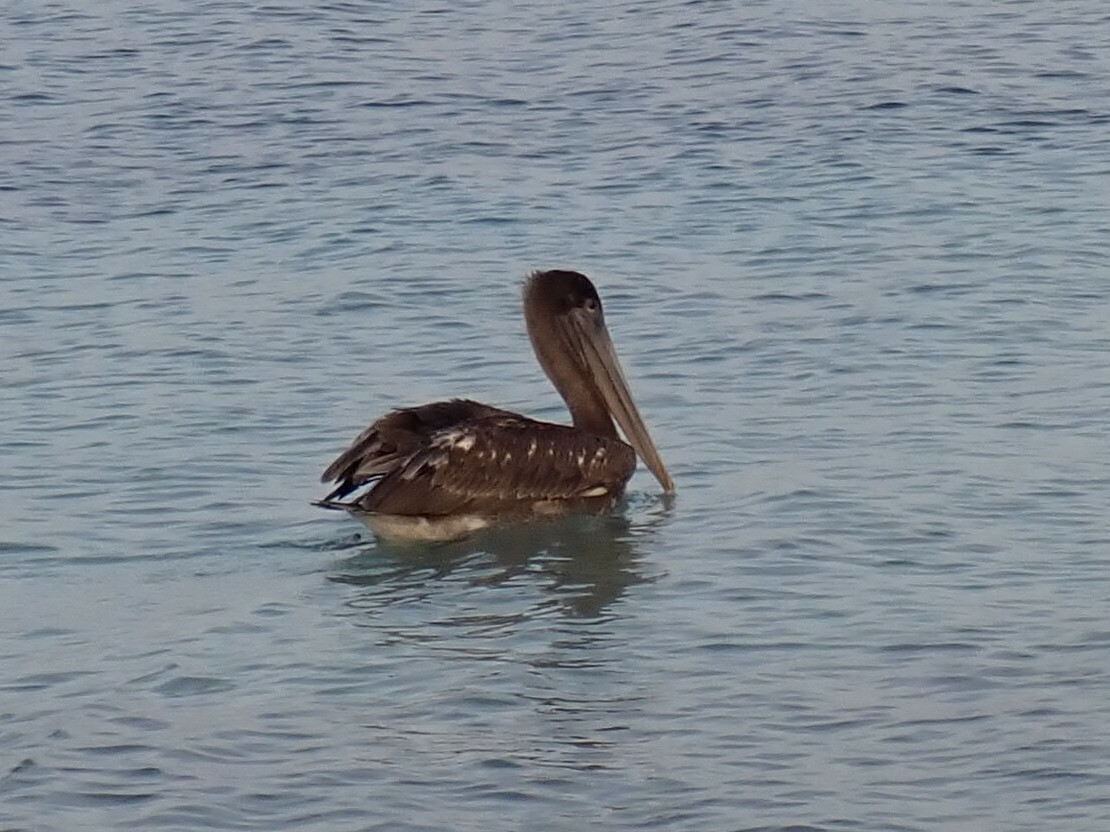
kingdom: Animalia
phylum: Chordata
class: Aves
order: Pelecaniformes
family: Pelecanidae
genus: Pelecanus
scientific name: Pelecanus occidentalis
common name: Brown pelican
